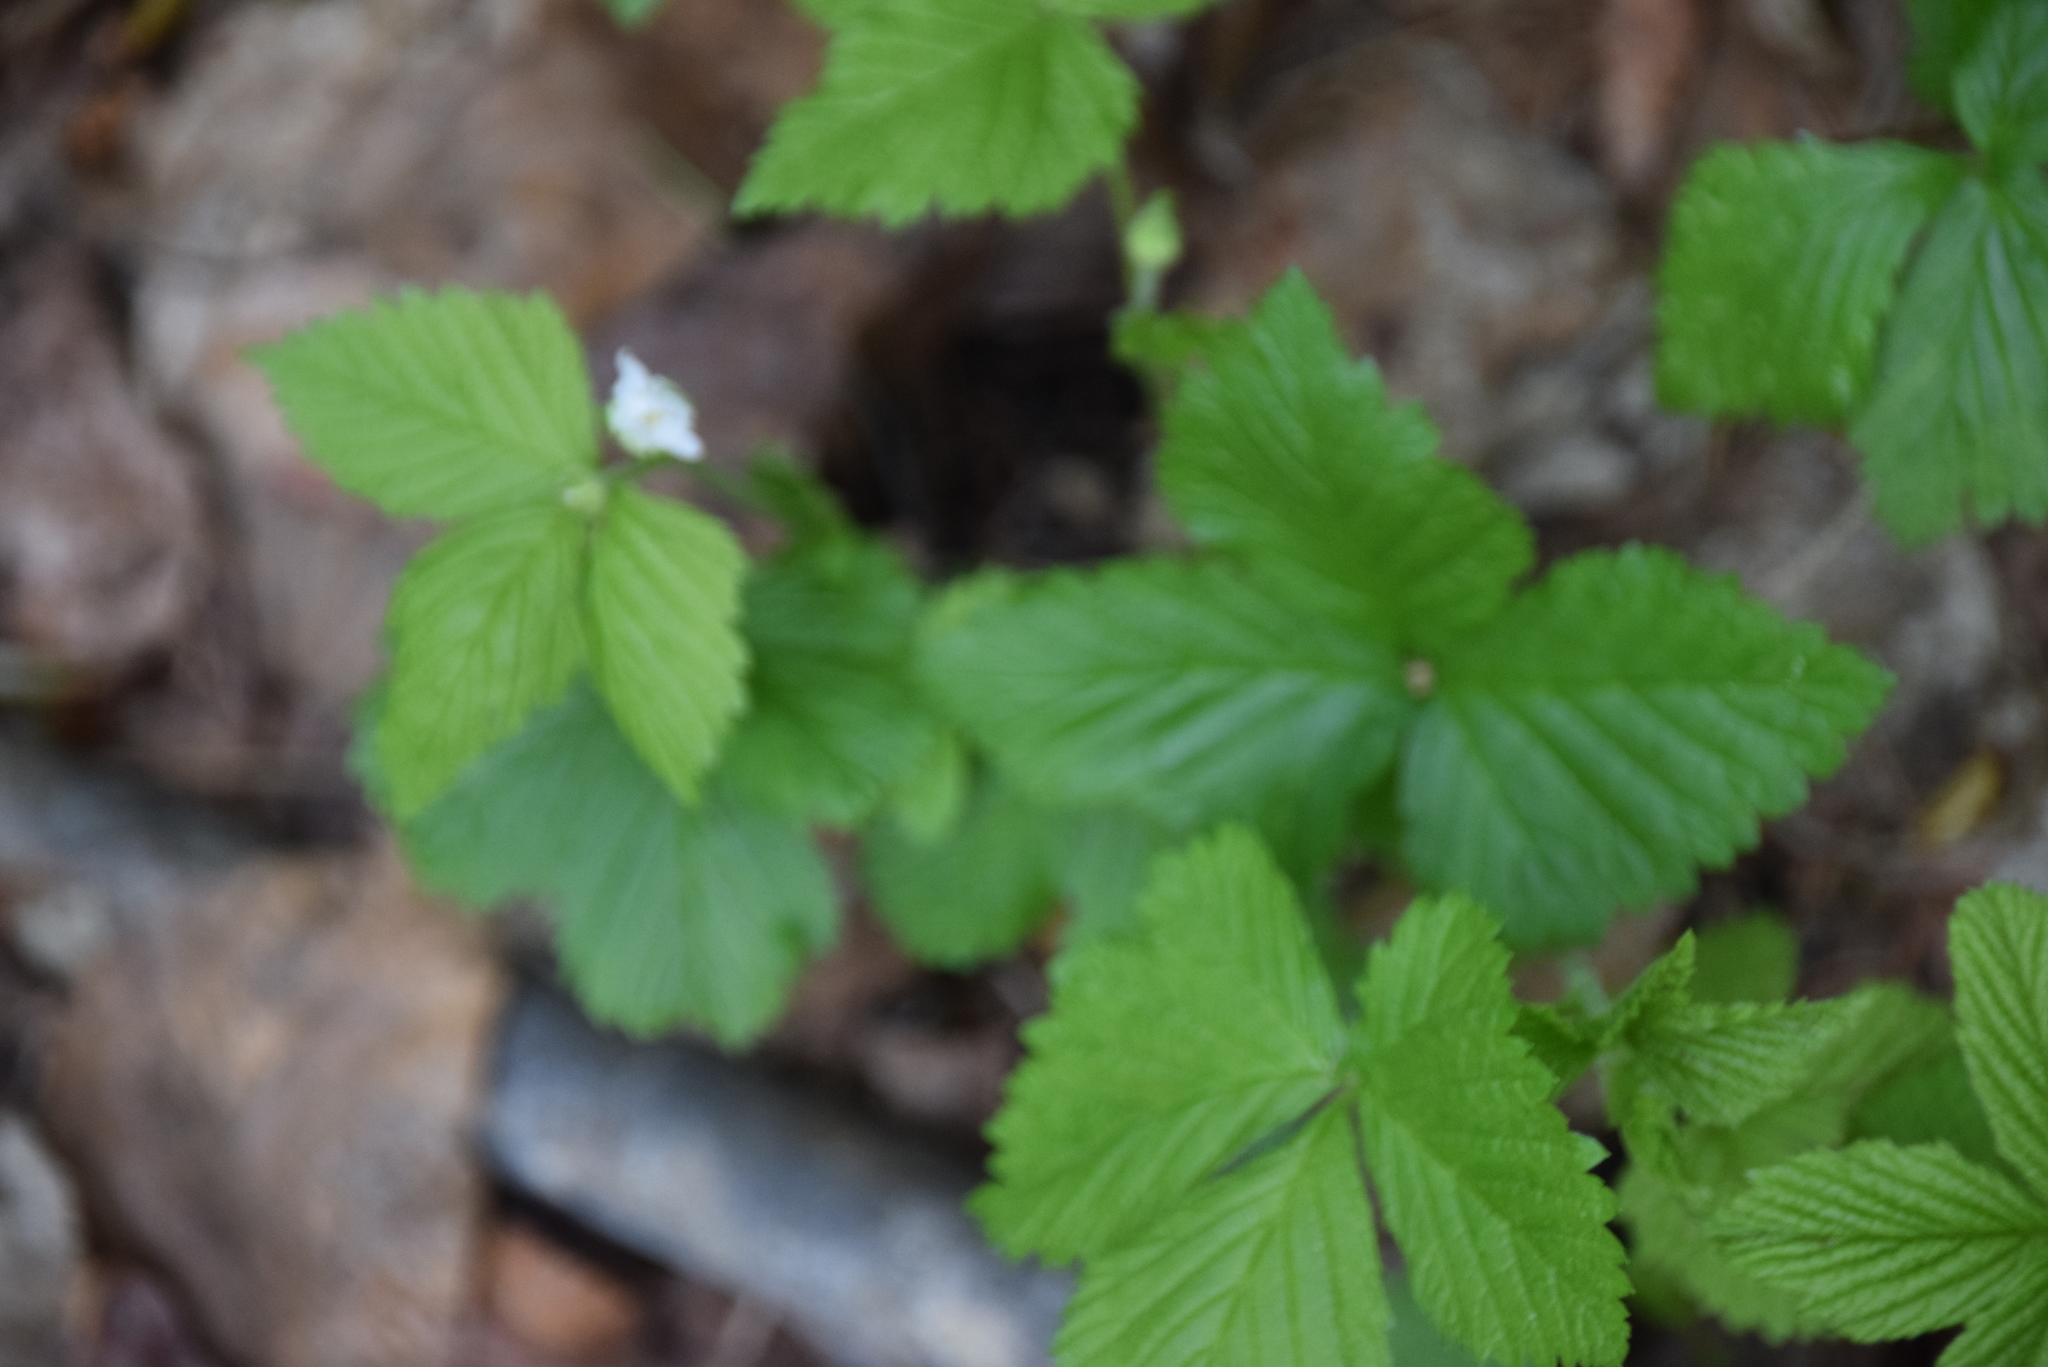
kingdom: Plantae
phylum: Tracheophyta
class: Magnoliopsida
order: Rosales
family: Rosaceae
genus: Rubus
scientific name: Rubus pubescens
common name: Dwarf raspberry
